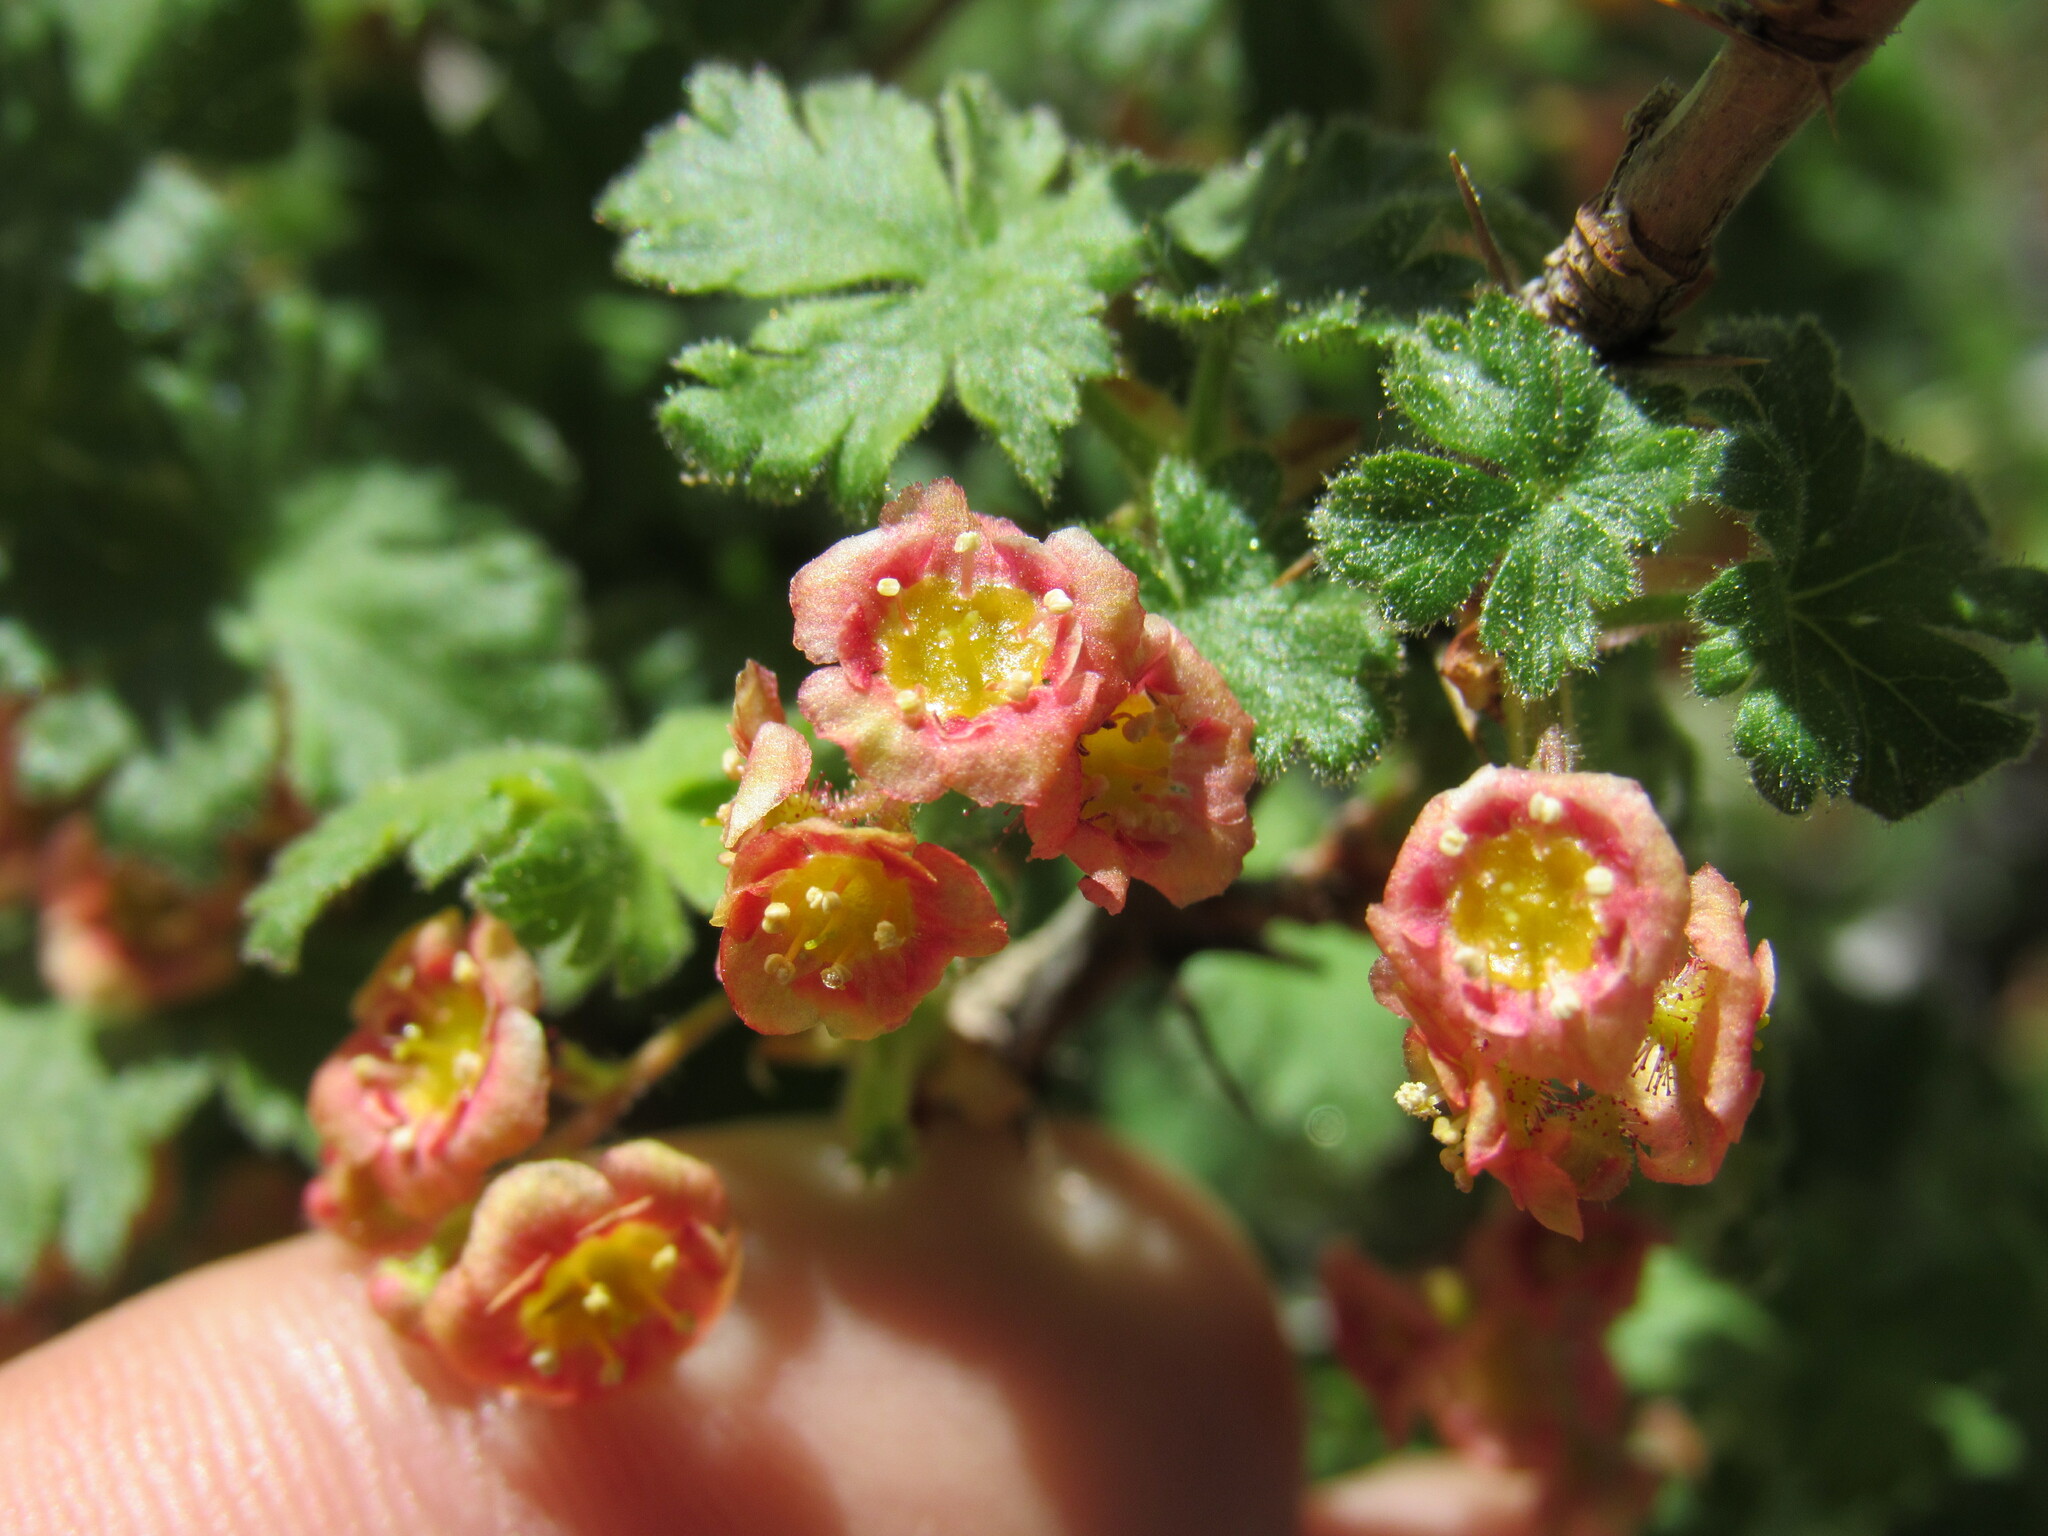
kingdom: Plantae
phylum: Tracheophyta
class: Magnoliopsida
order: Saxifragales
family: Grossulariaceae
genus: Ribes
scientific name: Ribes montigenum
